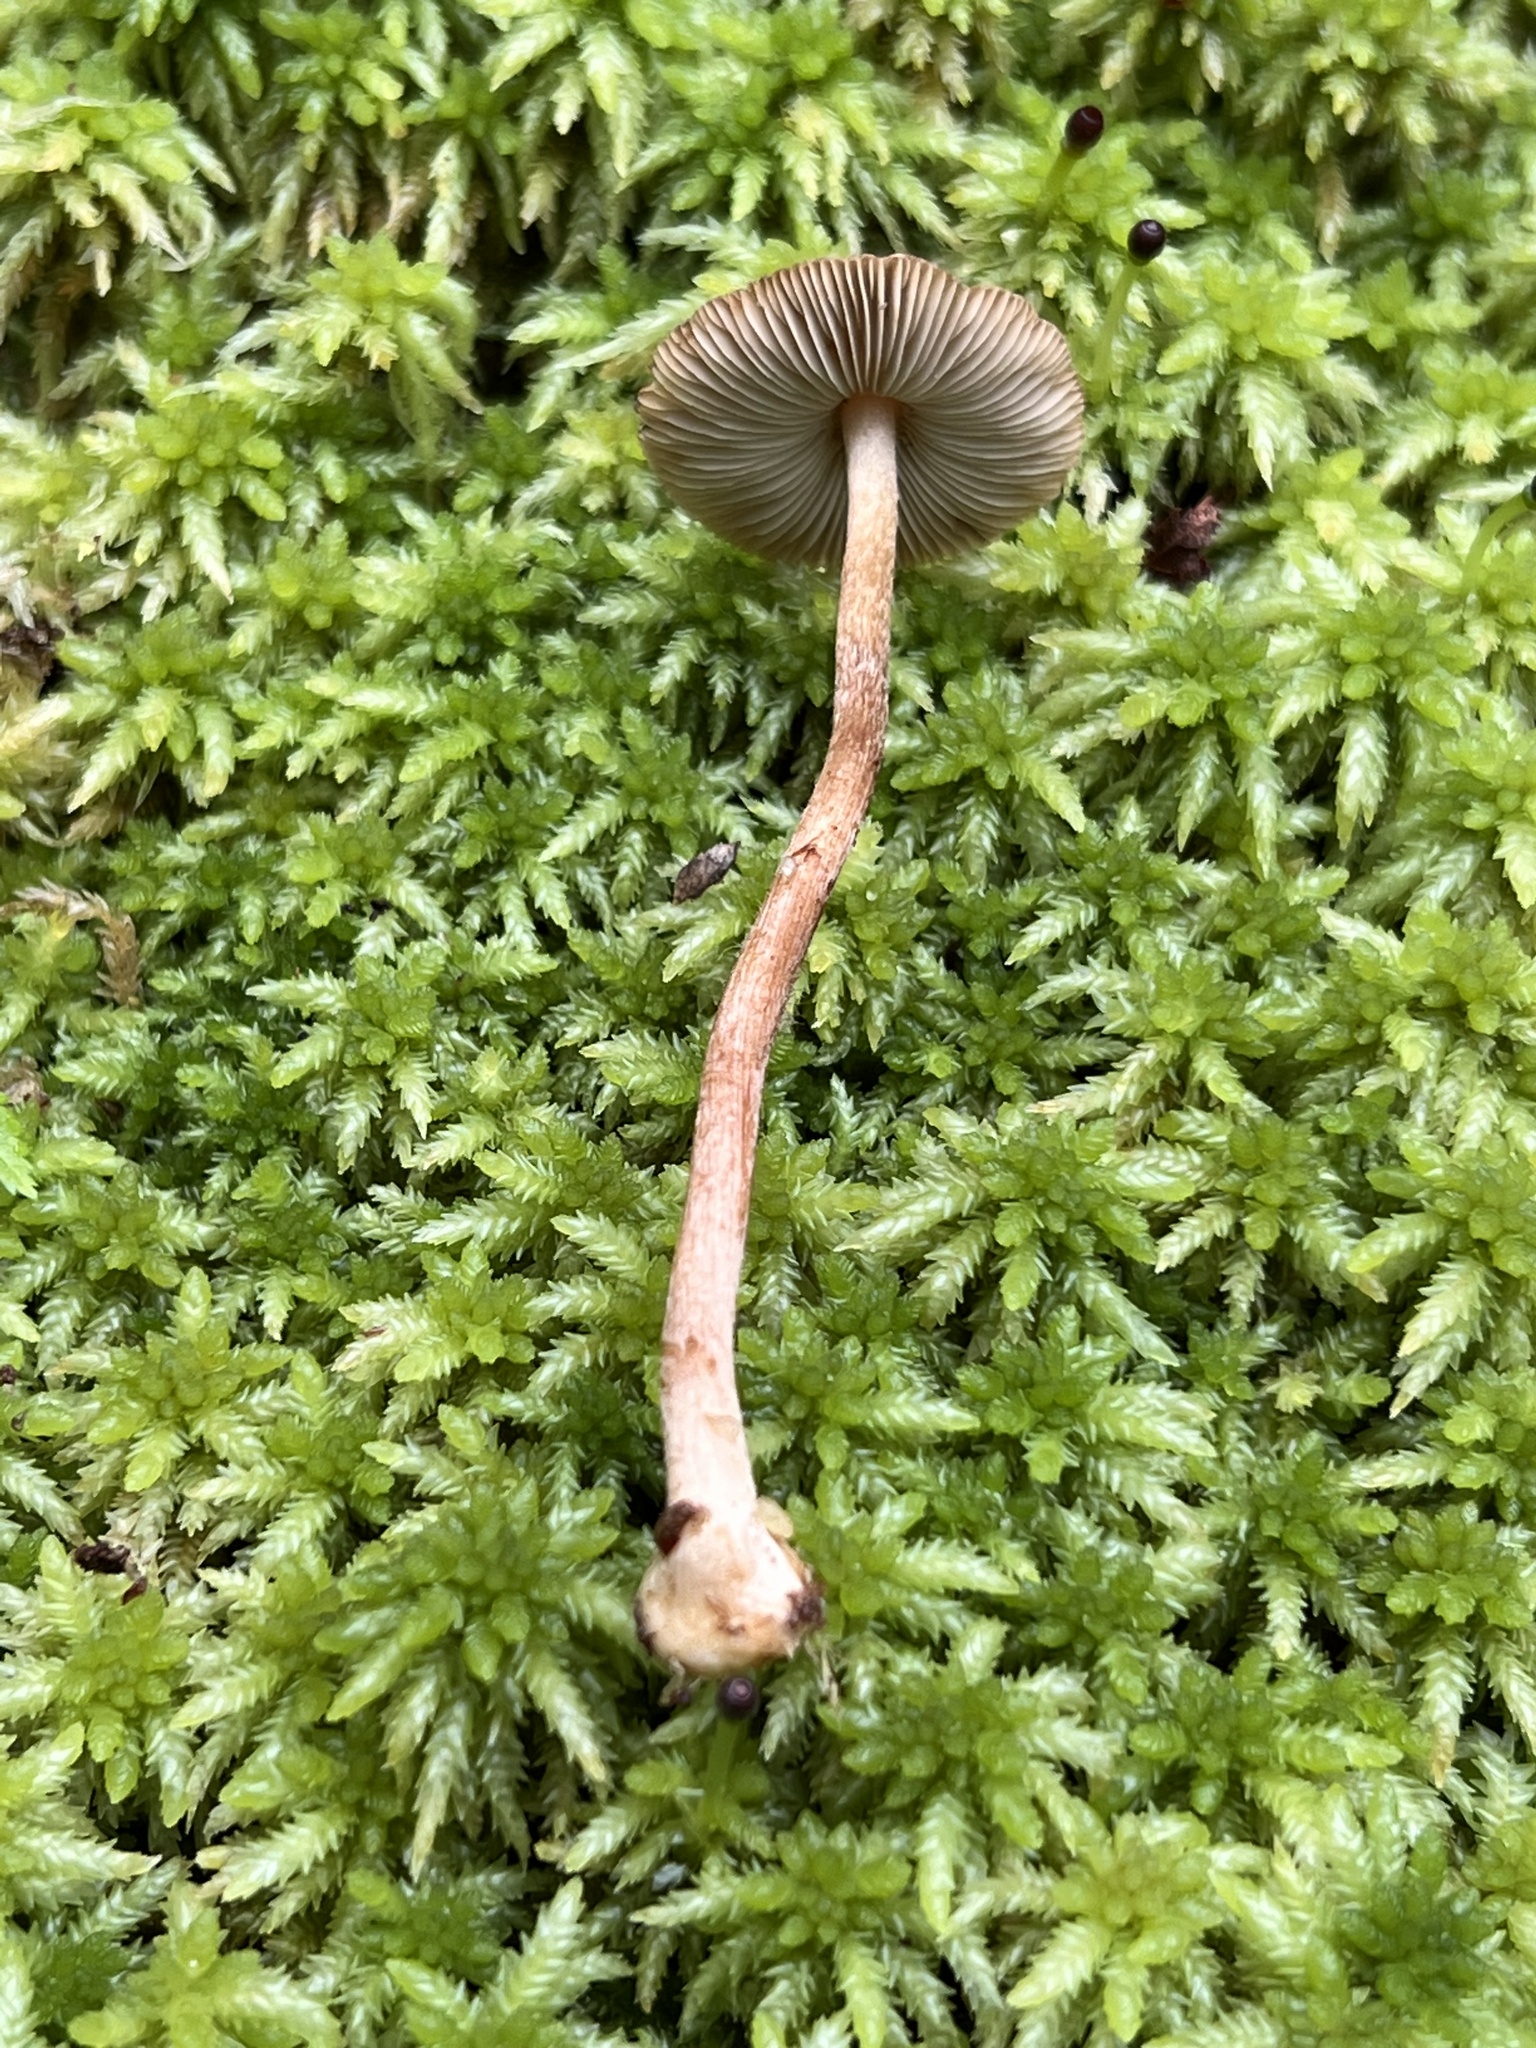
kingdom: Fungi
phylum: Basidiomycota
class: Agaricomycetes
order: Agaricales
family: Inocybaceae
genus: Inocybe
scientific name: Inocybe napipes
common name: Bulbous fibrecap
